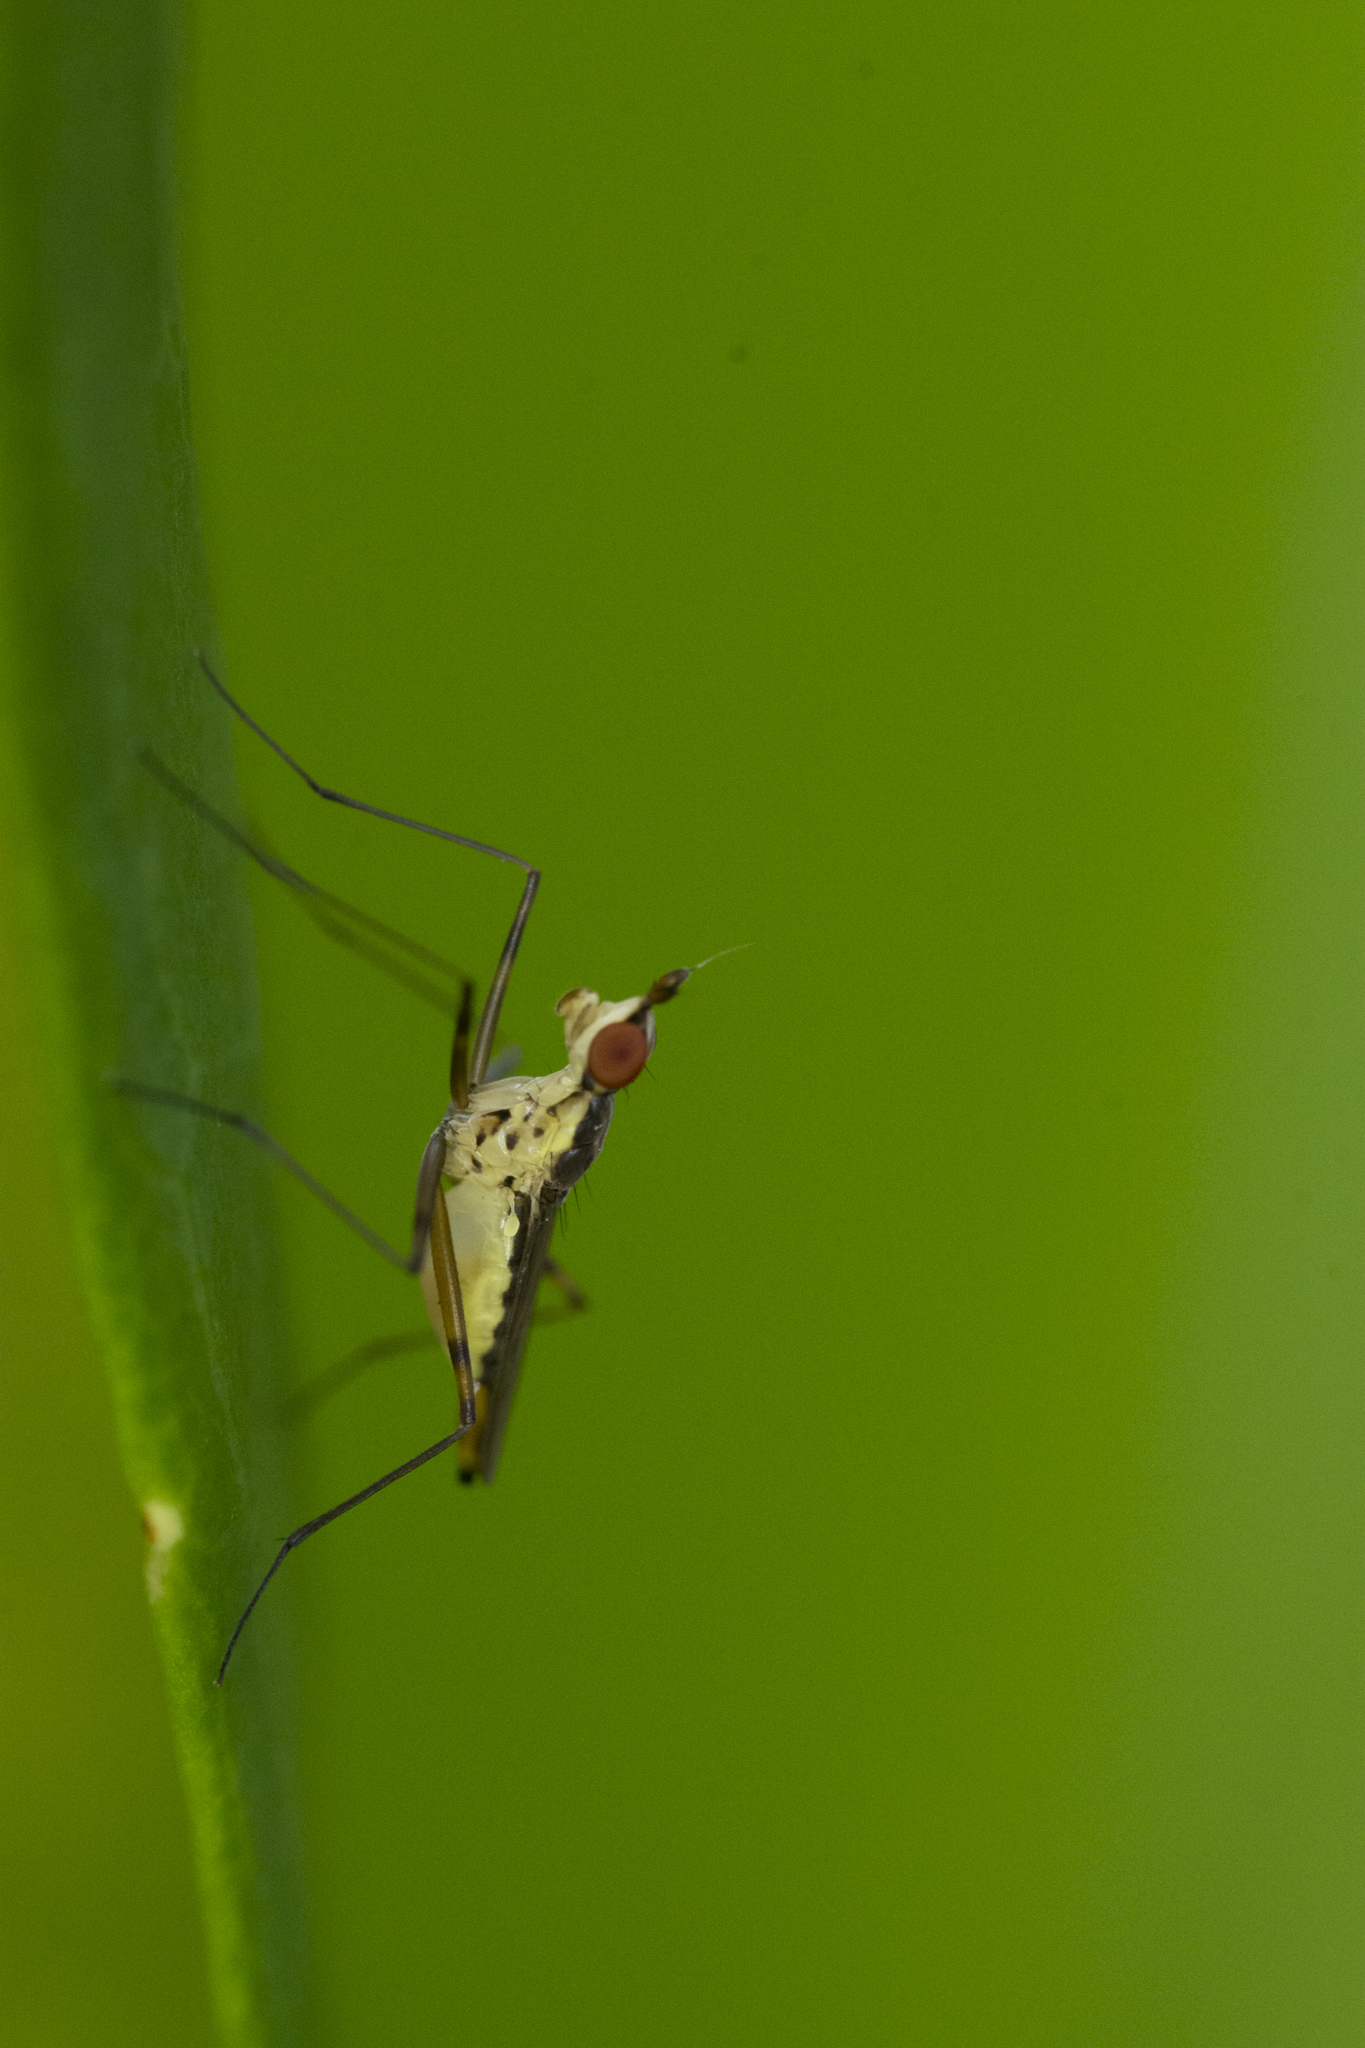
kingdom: Animalia
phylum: Arthropoda
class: Insecta
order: Diptera
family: Neriidae
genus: Telostylinus
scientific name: Telostylinus gressitti
